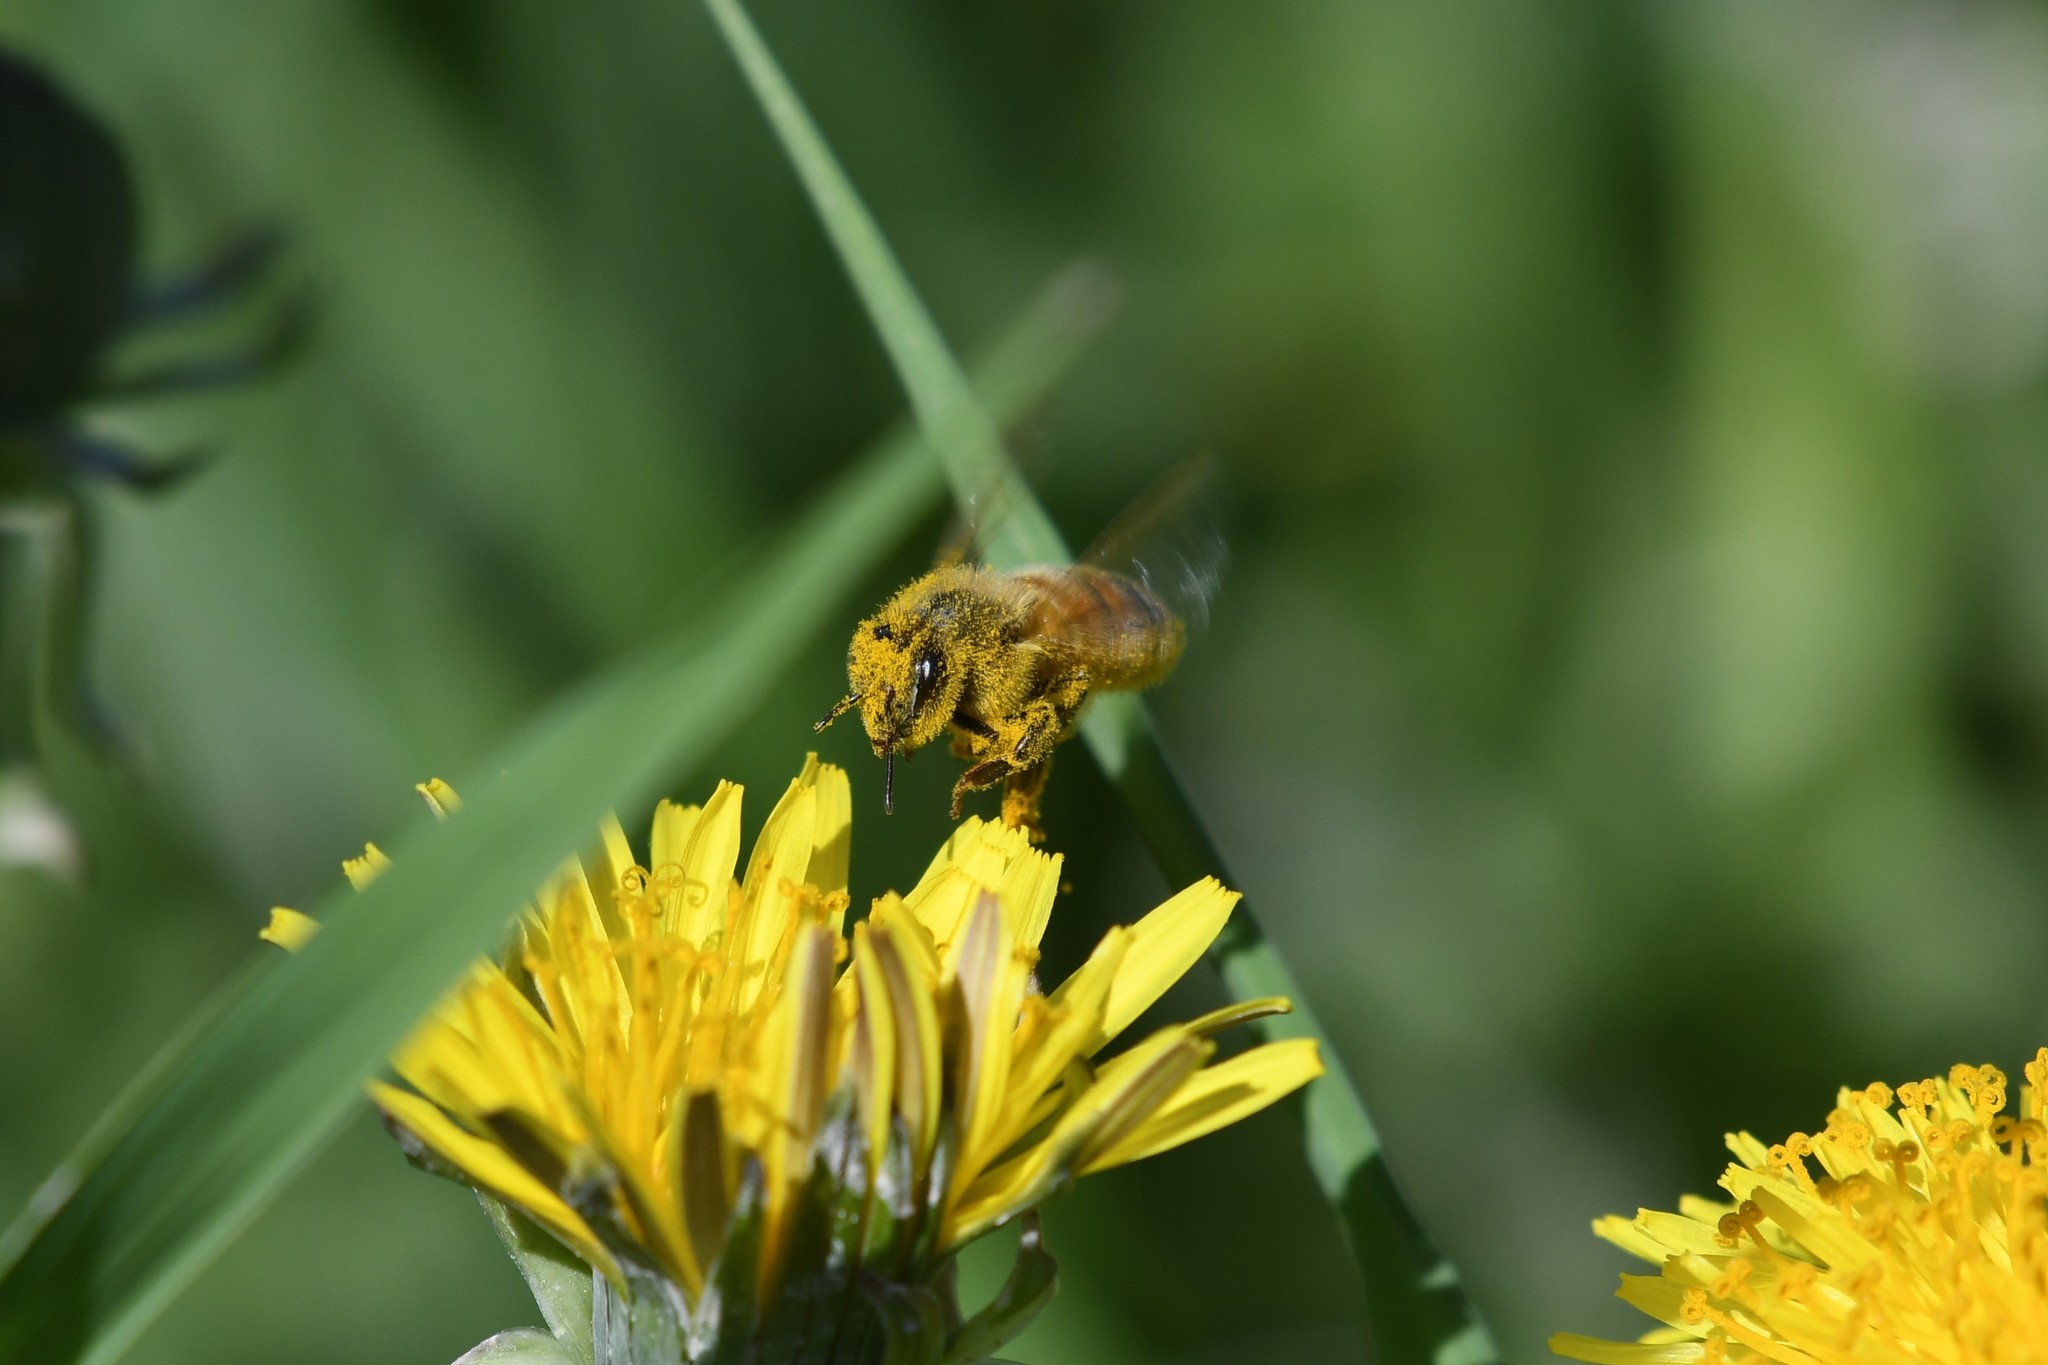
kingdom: Animalia
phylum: Arthropoda
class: Insecta
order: Hymenoptera
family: Apidae
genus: Apis
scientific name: Apis mellifera
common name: Honey bee
